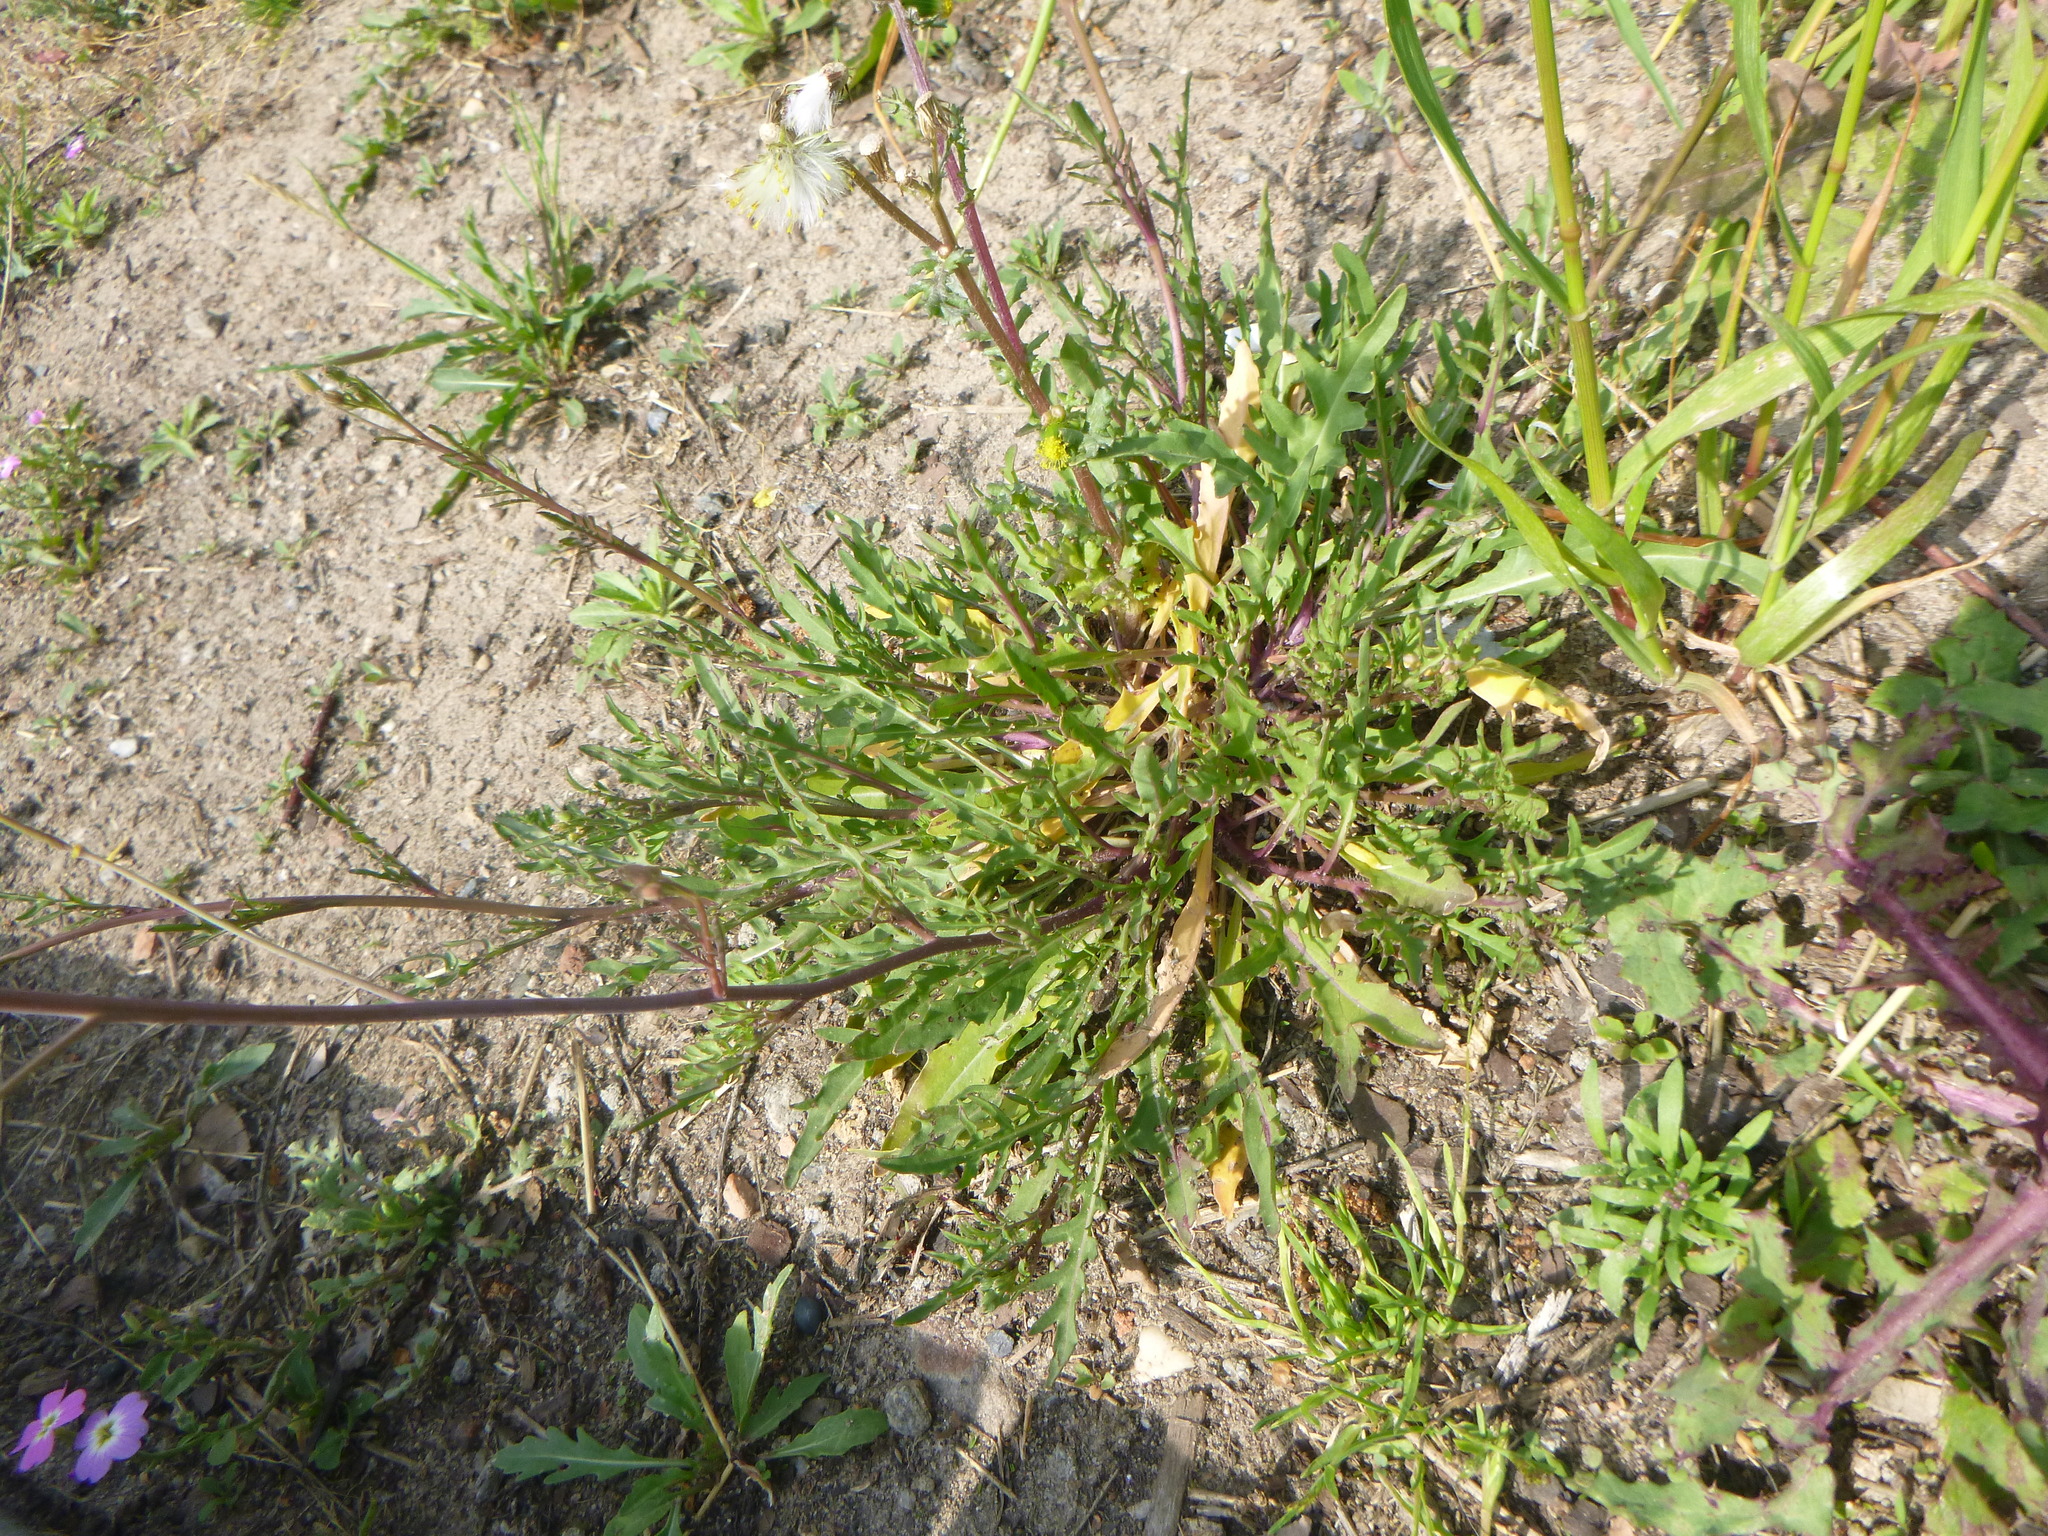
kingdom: Plantae
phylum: Tracheophyta
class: Magnoliopsida
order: Brassicales
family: Brassicaceae
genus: Diplotaxis
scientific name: Diplotaxis tenuifolia
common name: Perennial wall-rocket
